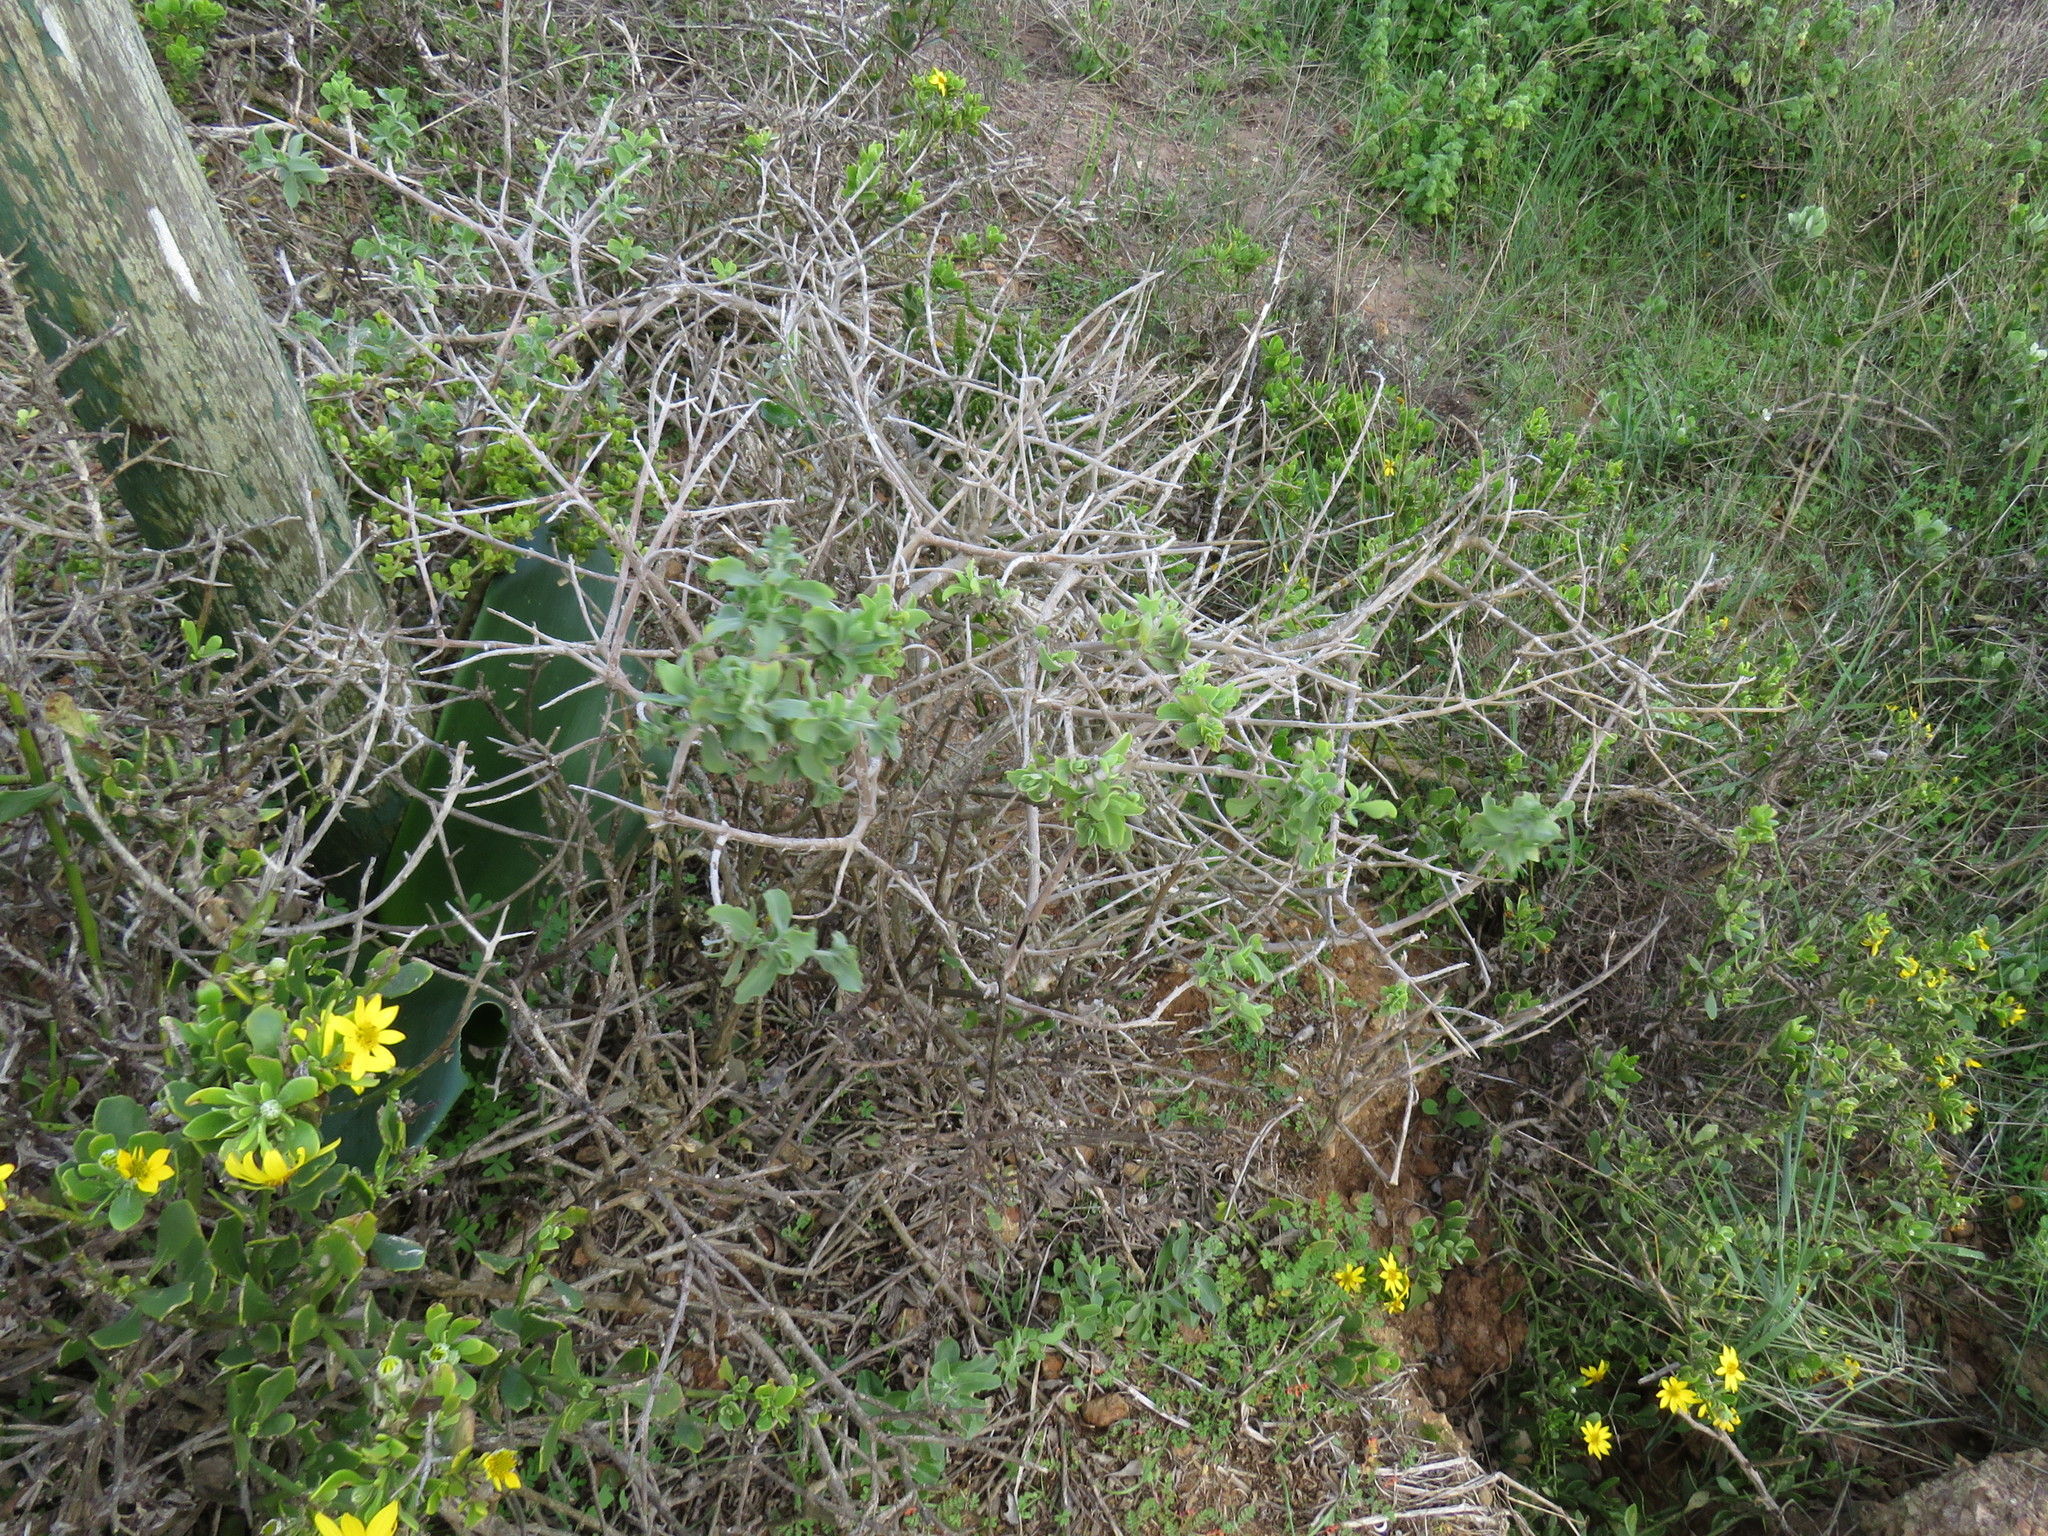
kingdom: Plantae
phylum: Tracheophyta
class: Magnoliopsida
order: Lamiales
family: Lamiaceae
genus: Salvia
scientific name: Salvia aurea
